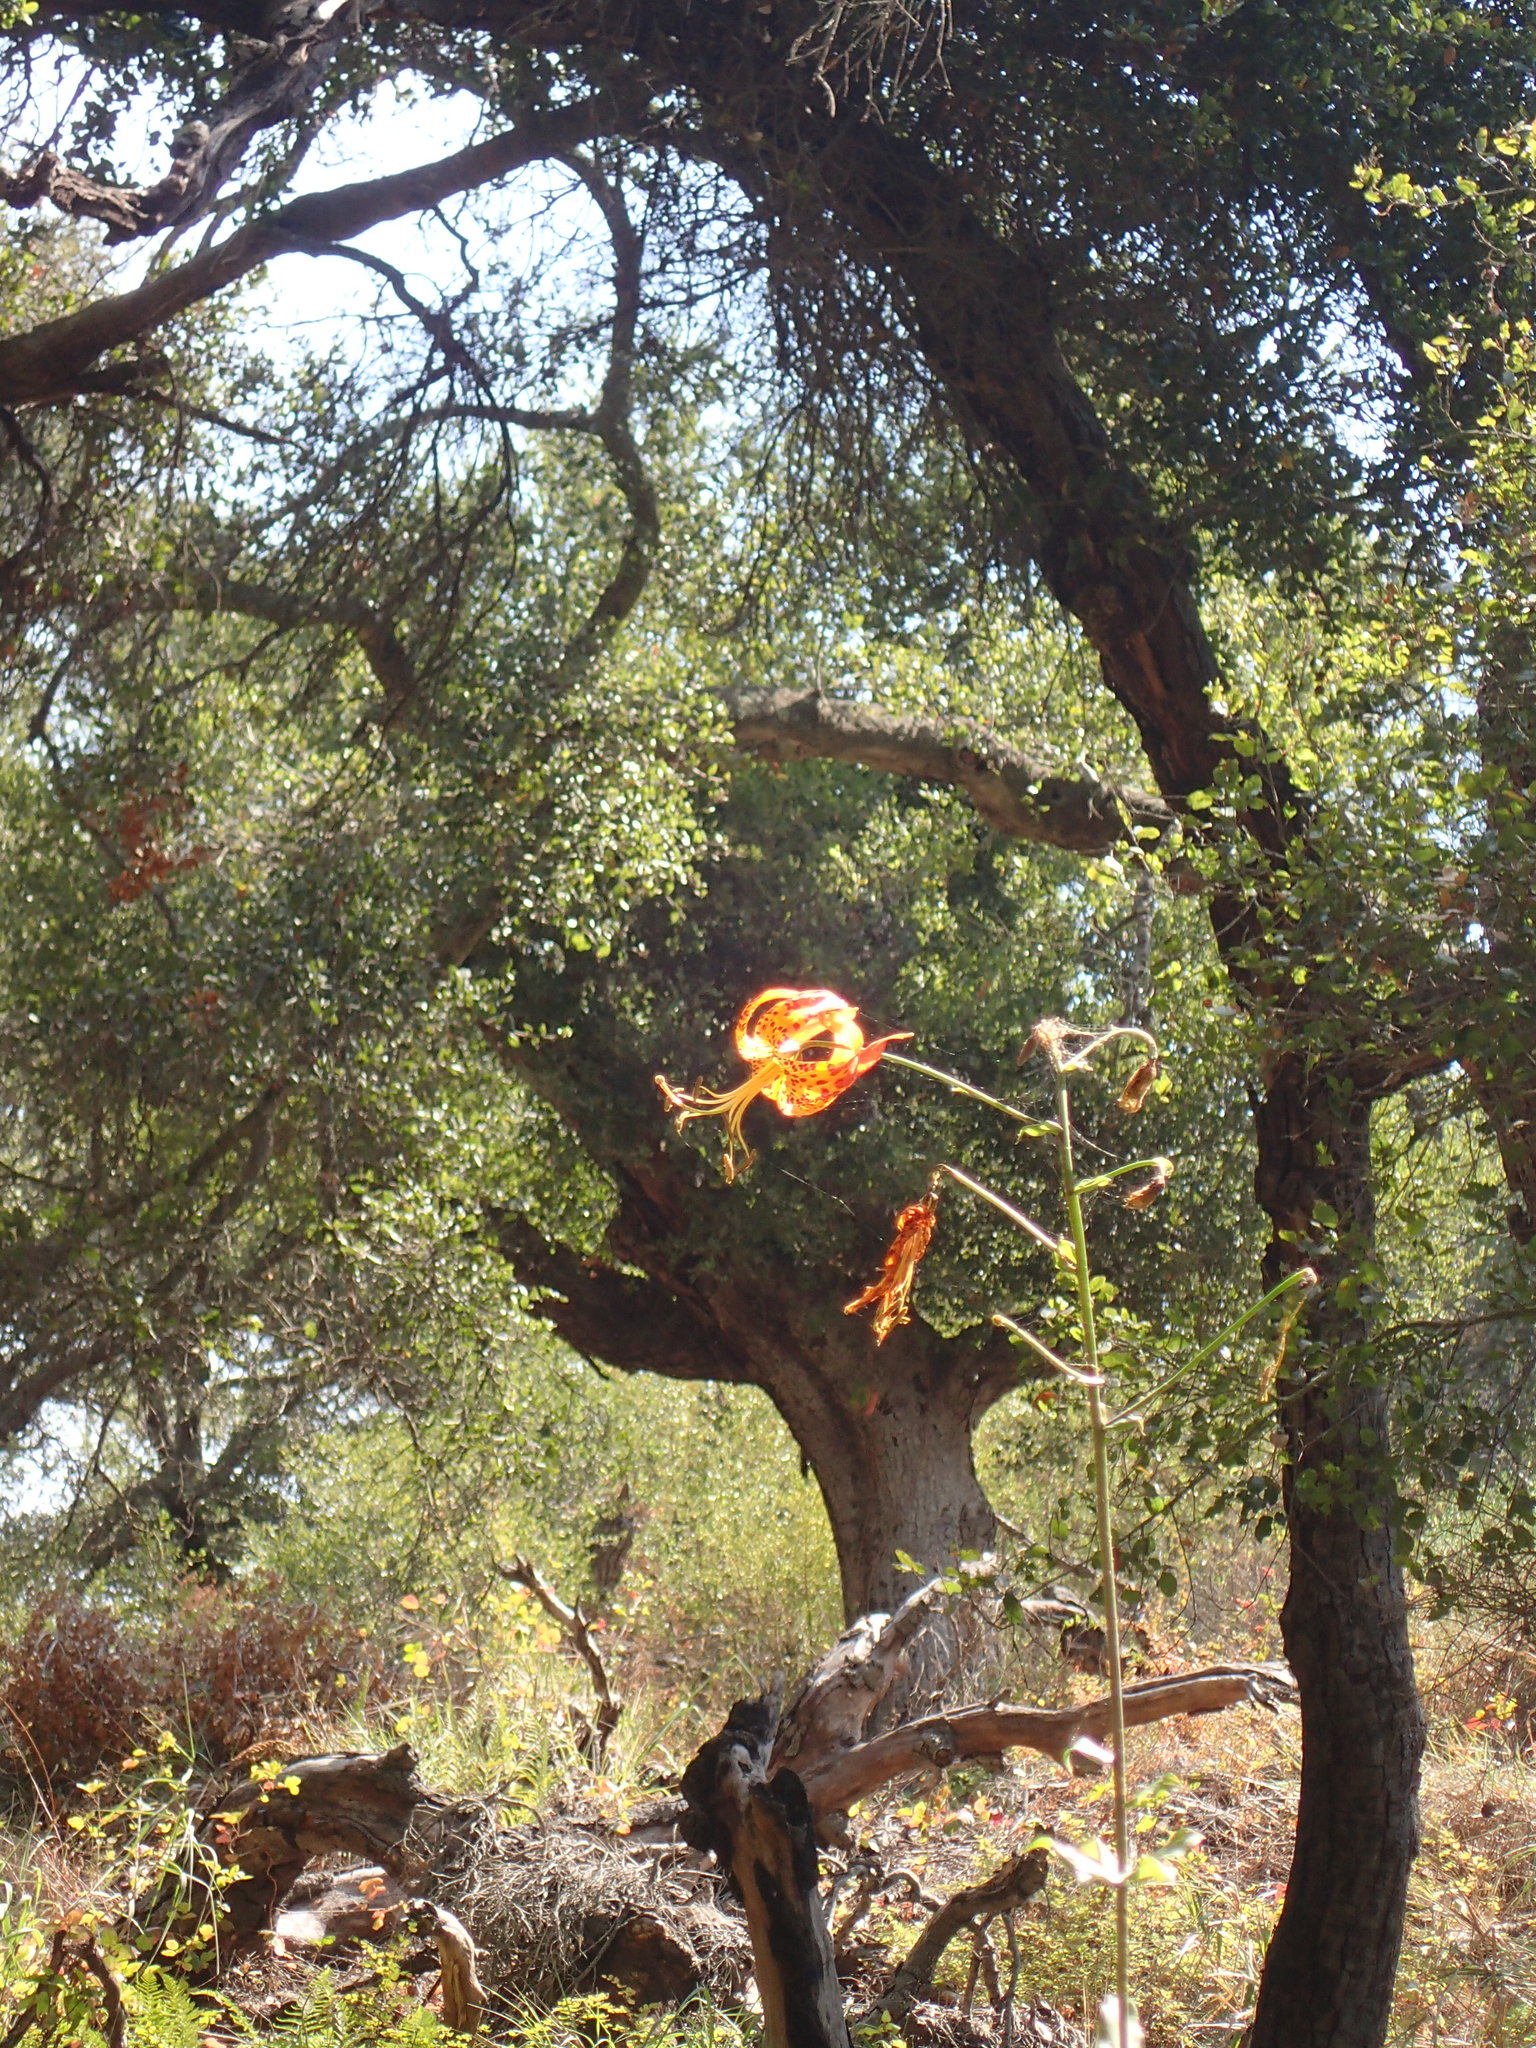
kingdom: Plantae
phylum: Tracheophyta
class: Liliopsida
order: Liliales
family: Liliaceae
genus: Lilium
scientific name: Lilium humboldtii
